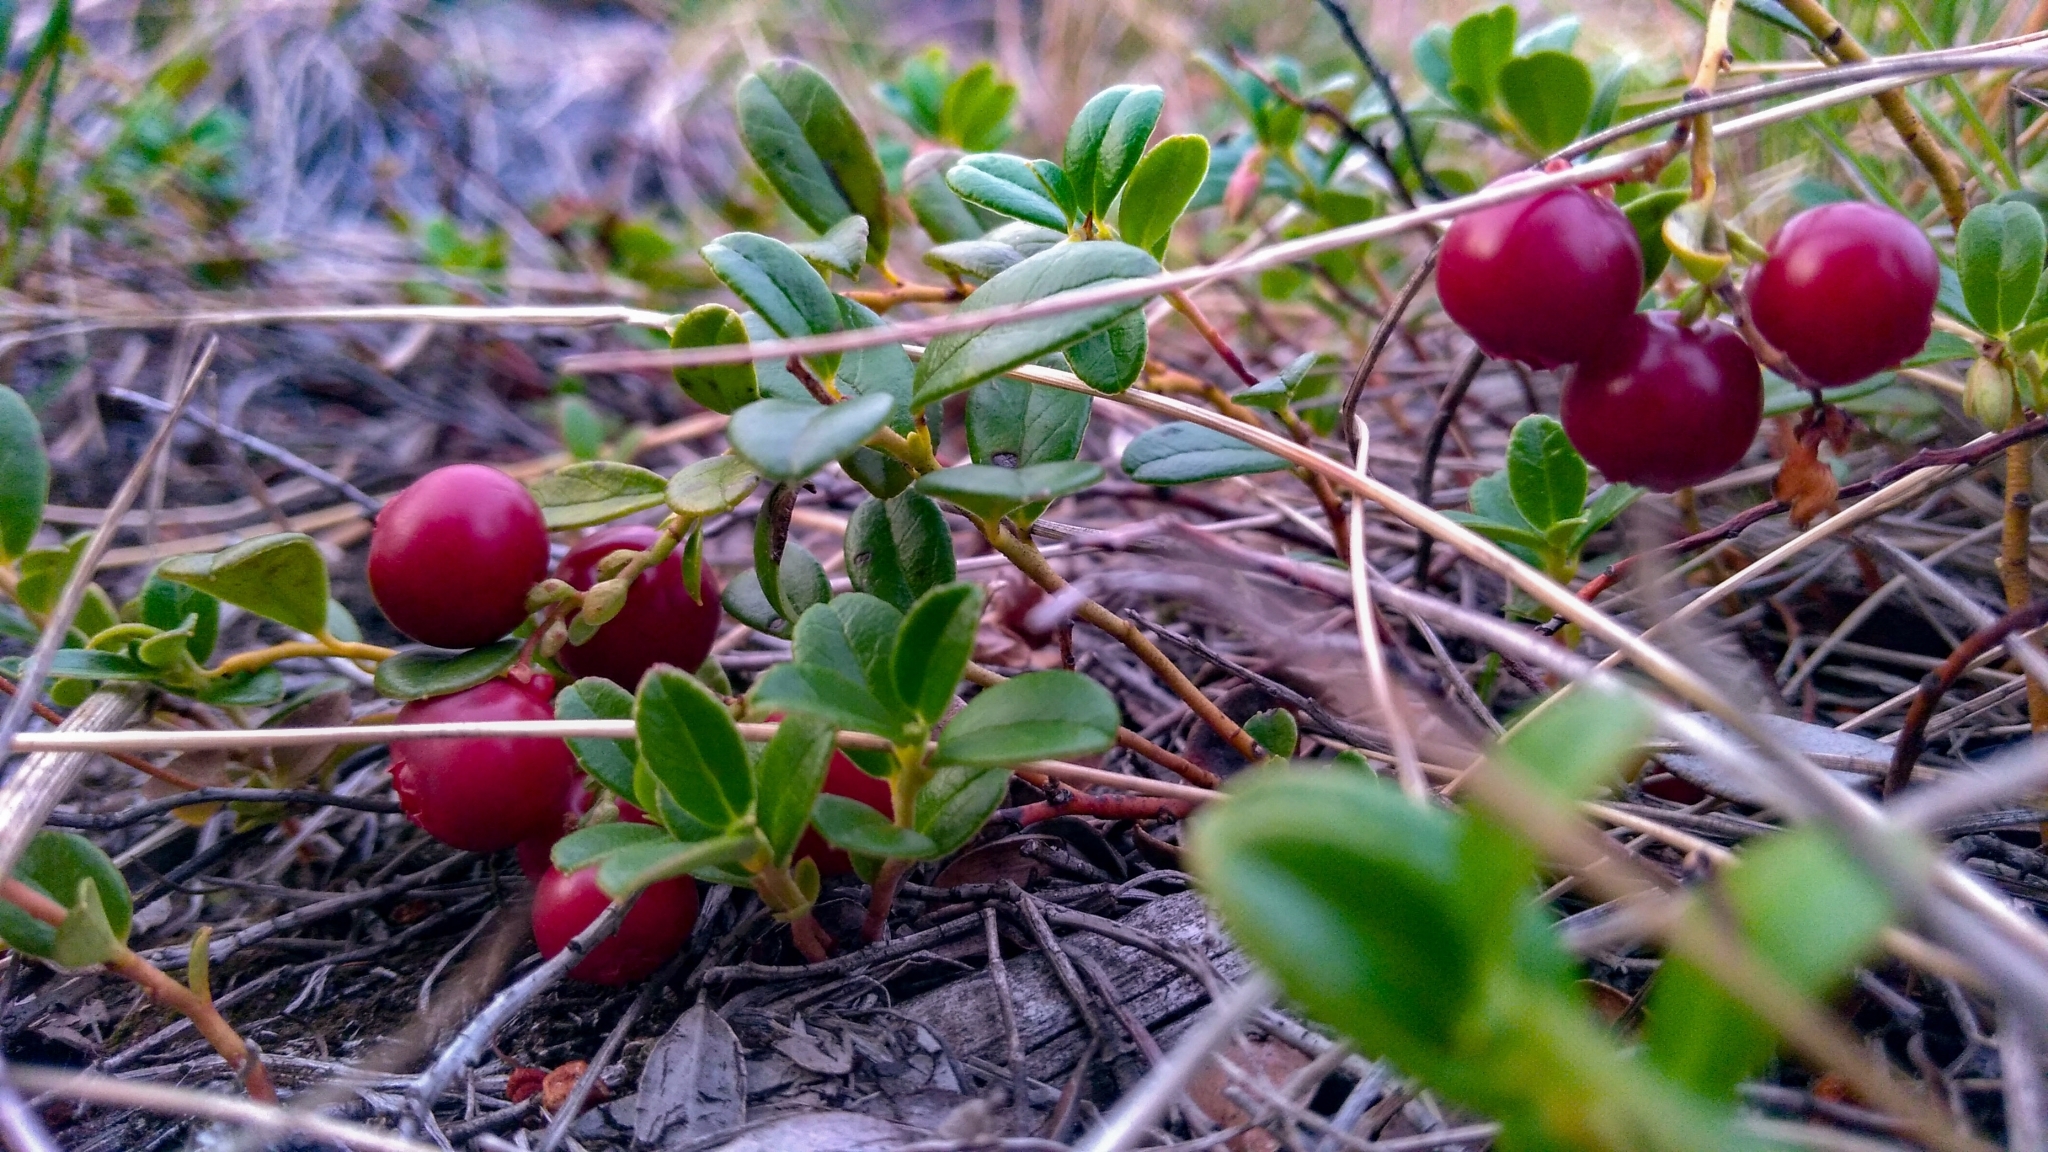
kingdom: Plantae
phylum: Tracheophyta
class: Magnoliopsida
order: Ericales
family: Ericaceae
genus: Vaccinium
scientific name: Vaccinium vitis-idaea
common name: Cowberry
